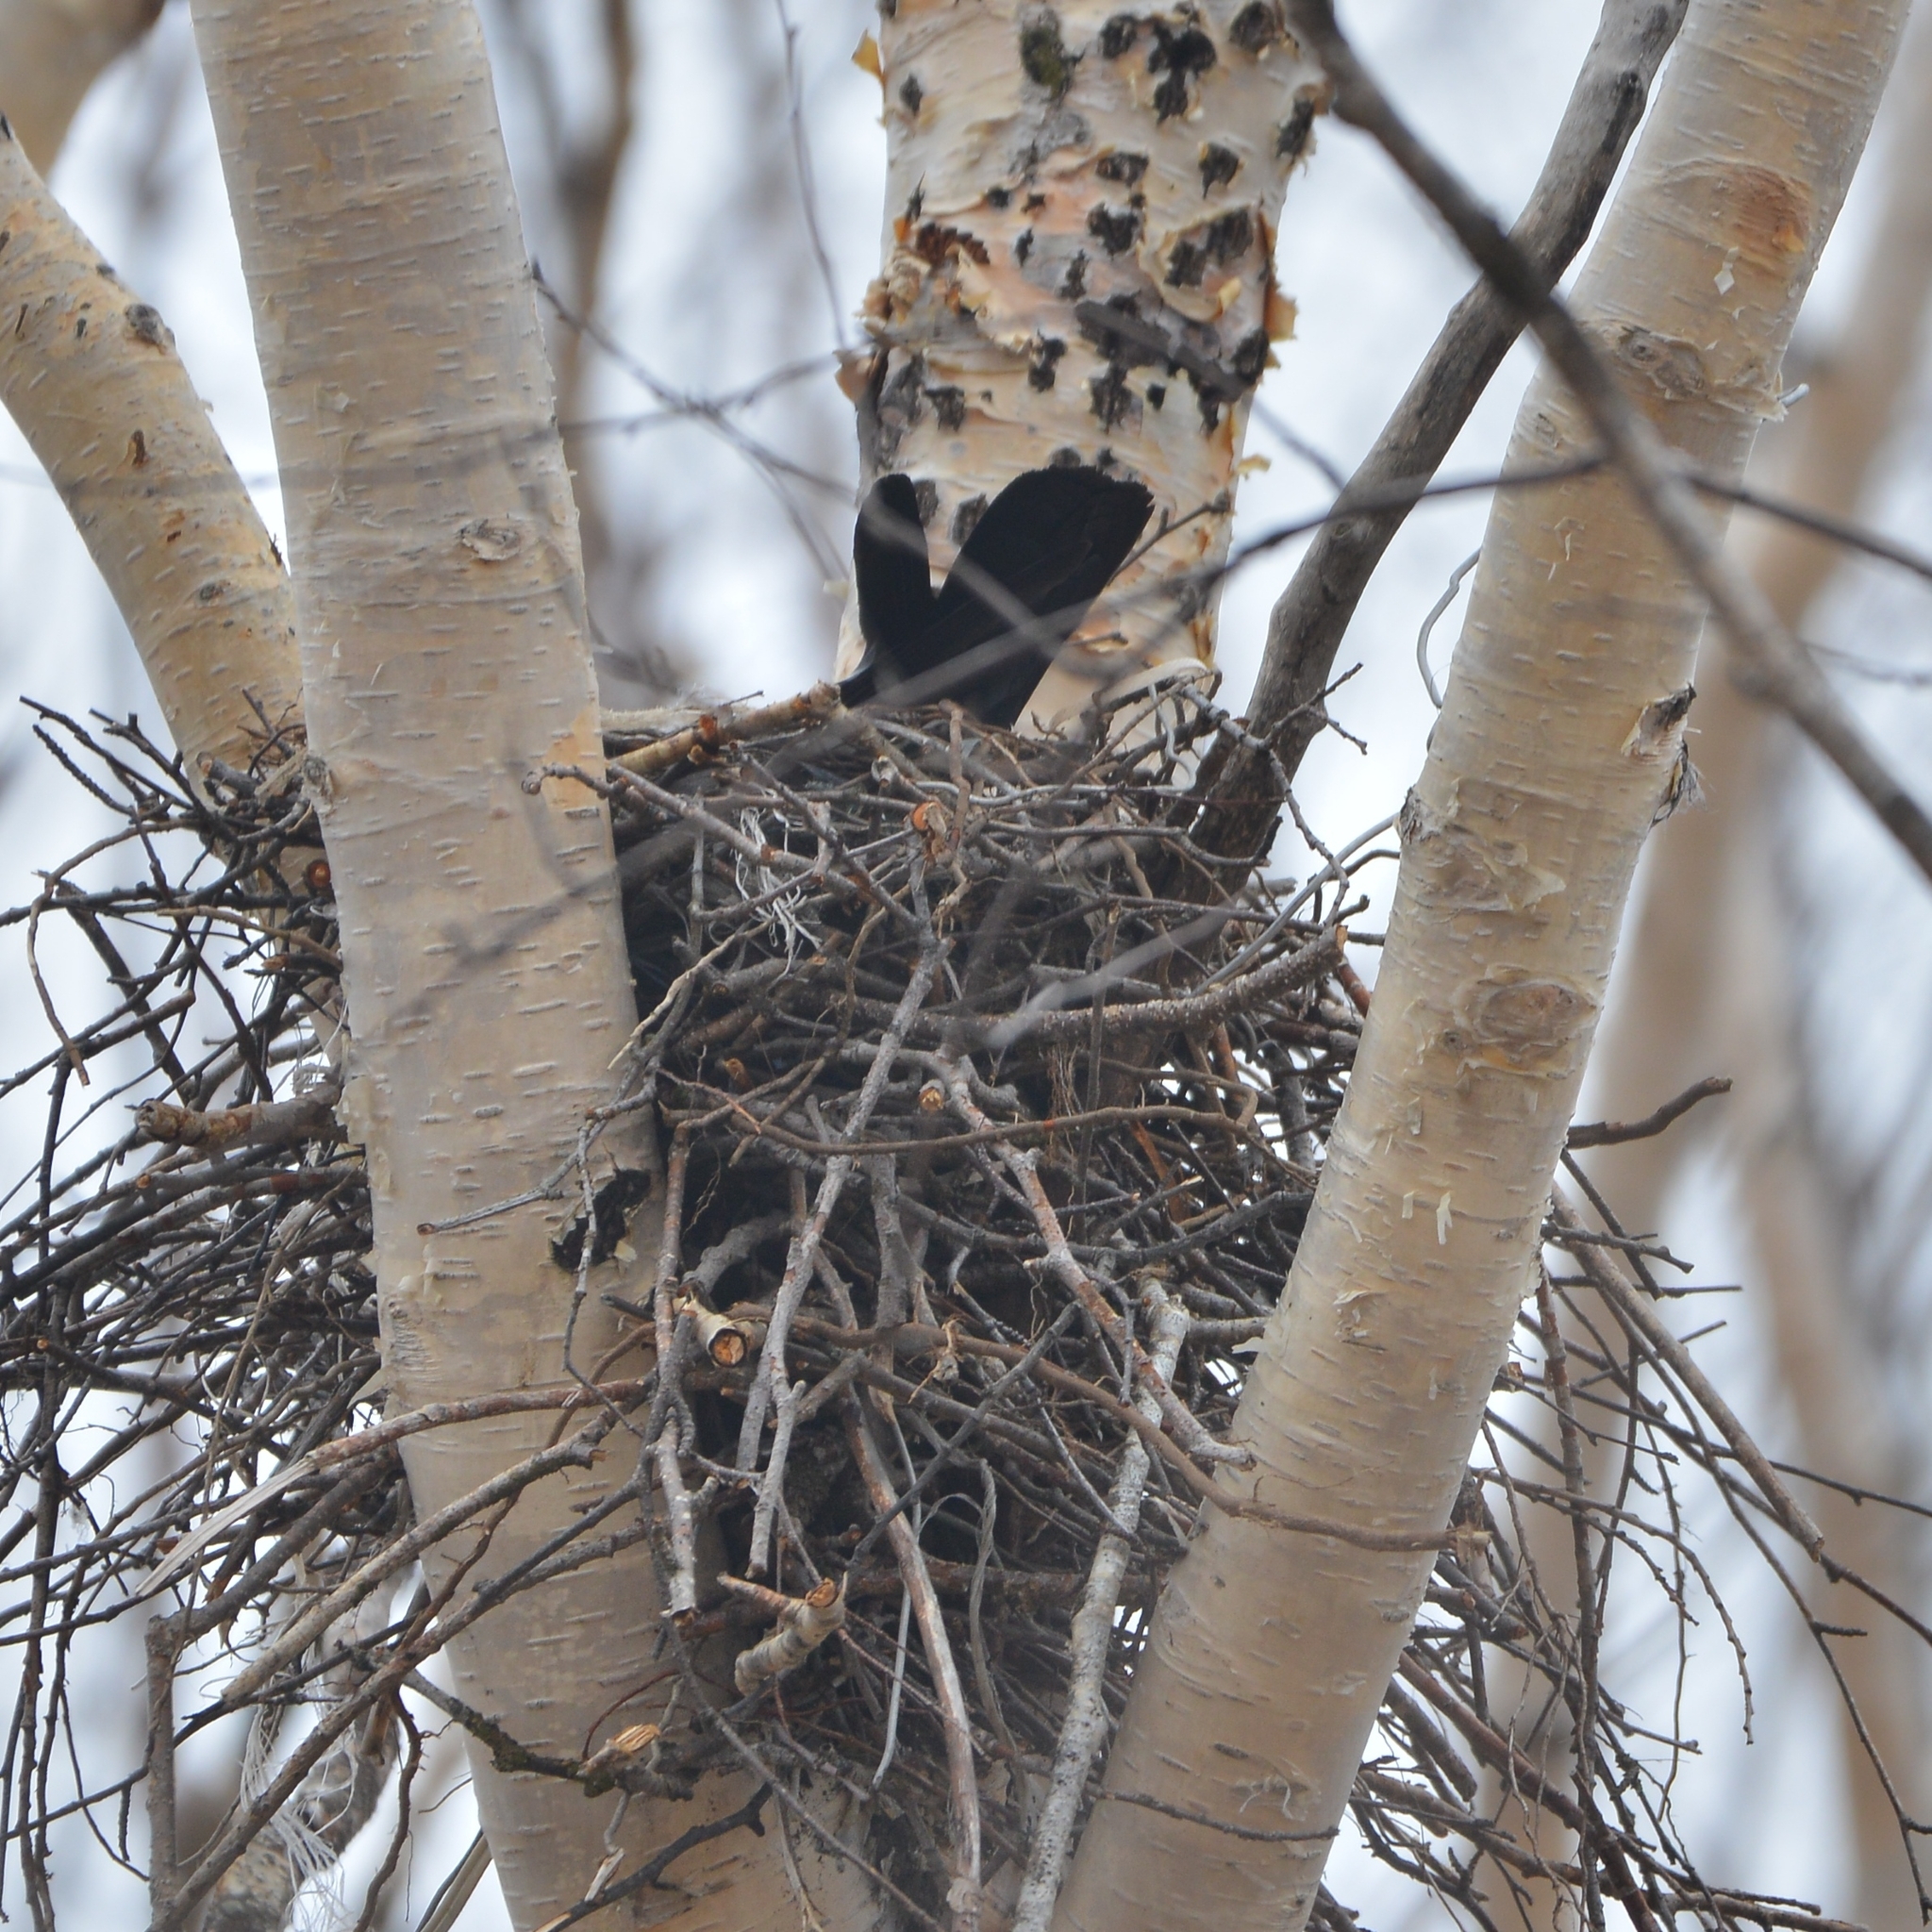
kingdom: Animalia
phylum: Chordata
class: Aves
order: Passeriformes
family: Corvidae
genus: Corvus
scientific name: Corvus corone
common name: Carrion crow
